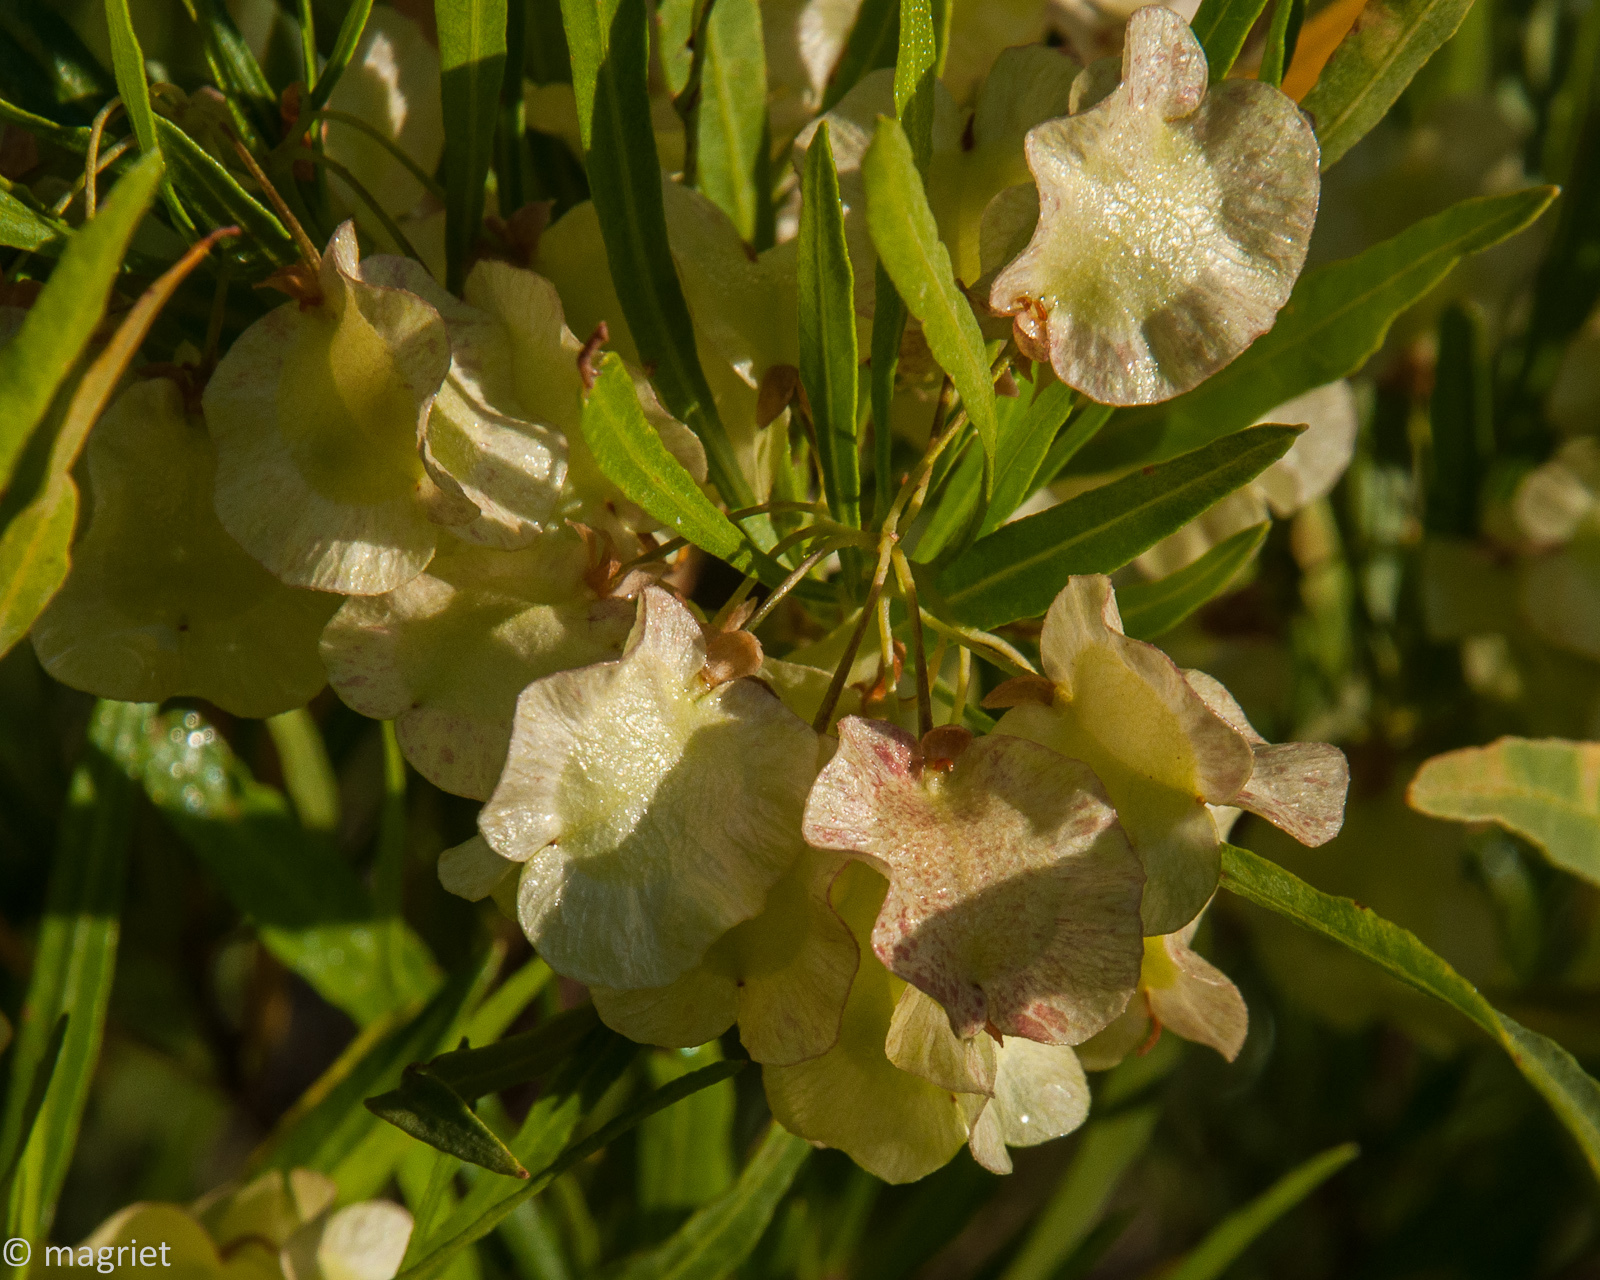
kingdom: Plantae
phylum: Tracheophyta
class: Magnoliopsida
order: Sapindales
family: Sapindaceae
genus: Dodonaea
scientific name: Dodonaea viscosa
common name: Hopbush
